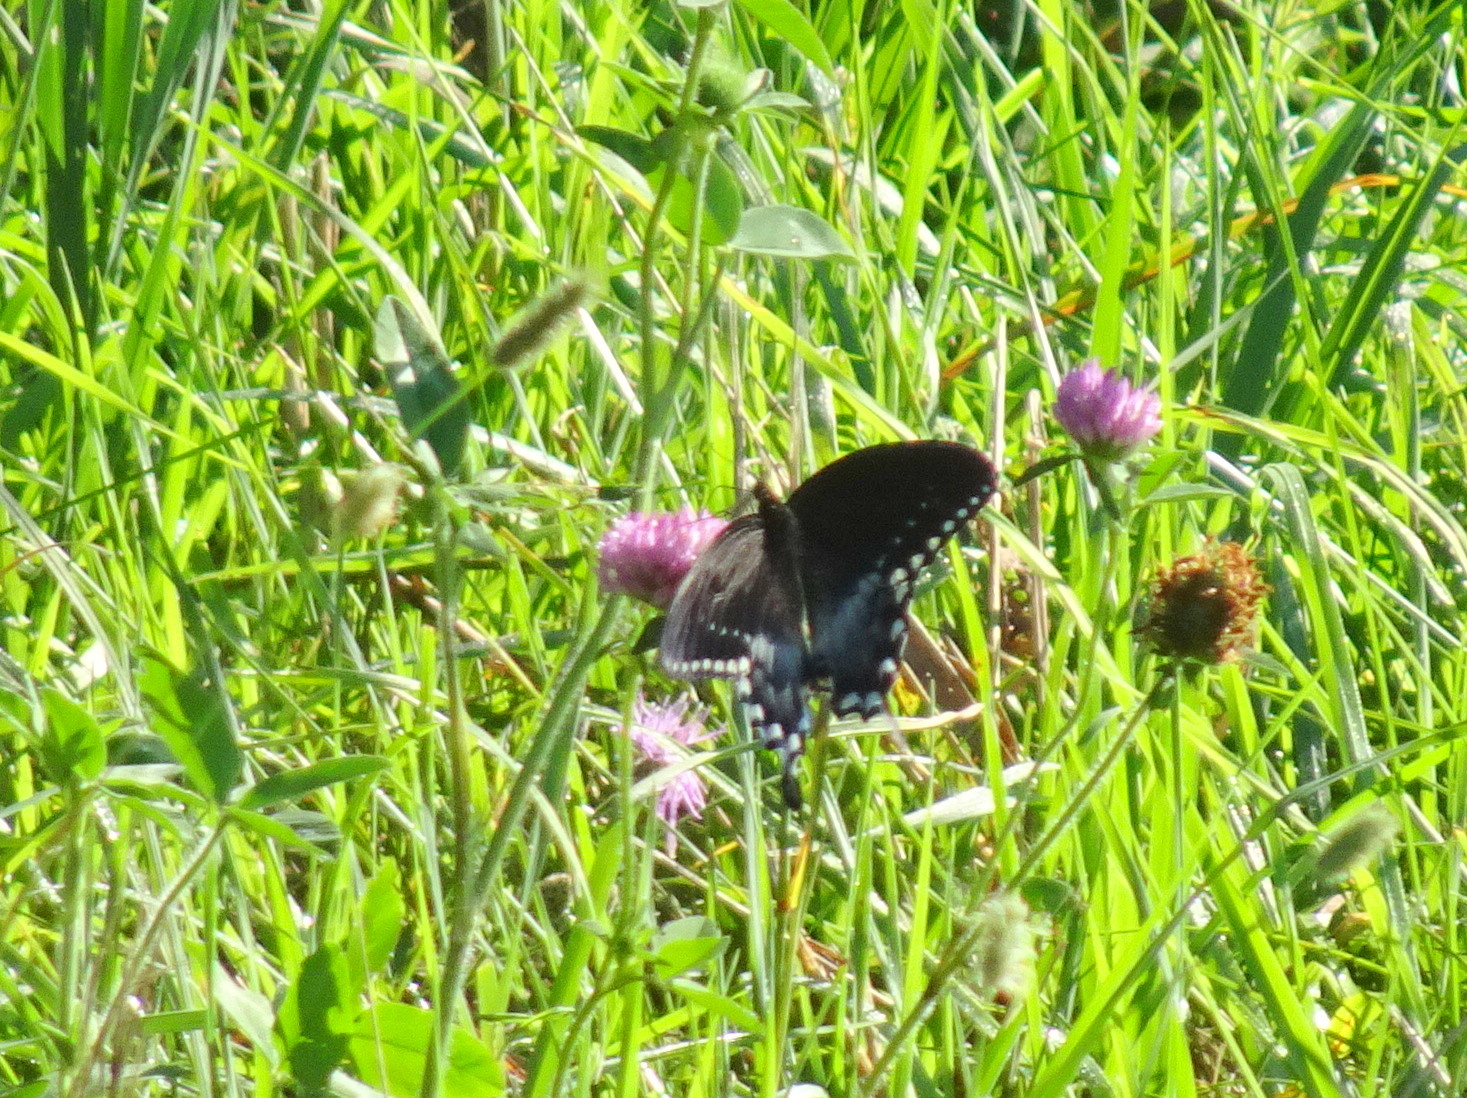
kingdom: Animalia
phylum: Arthropoda
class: Insecta
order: Lepidoptera
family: Papilionidae
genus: Papilio
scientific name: Papilio troilus
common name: Spicebush swallowtail
